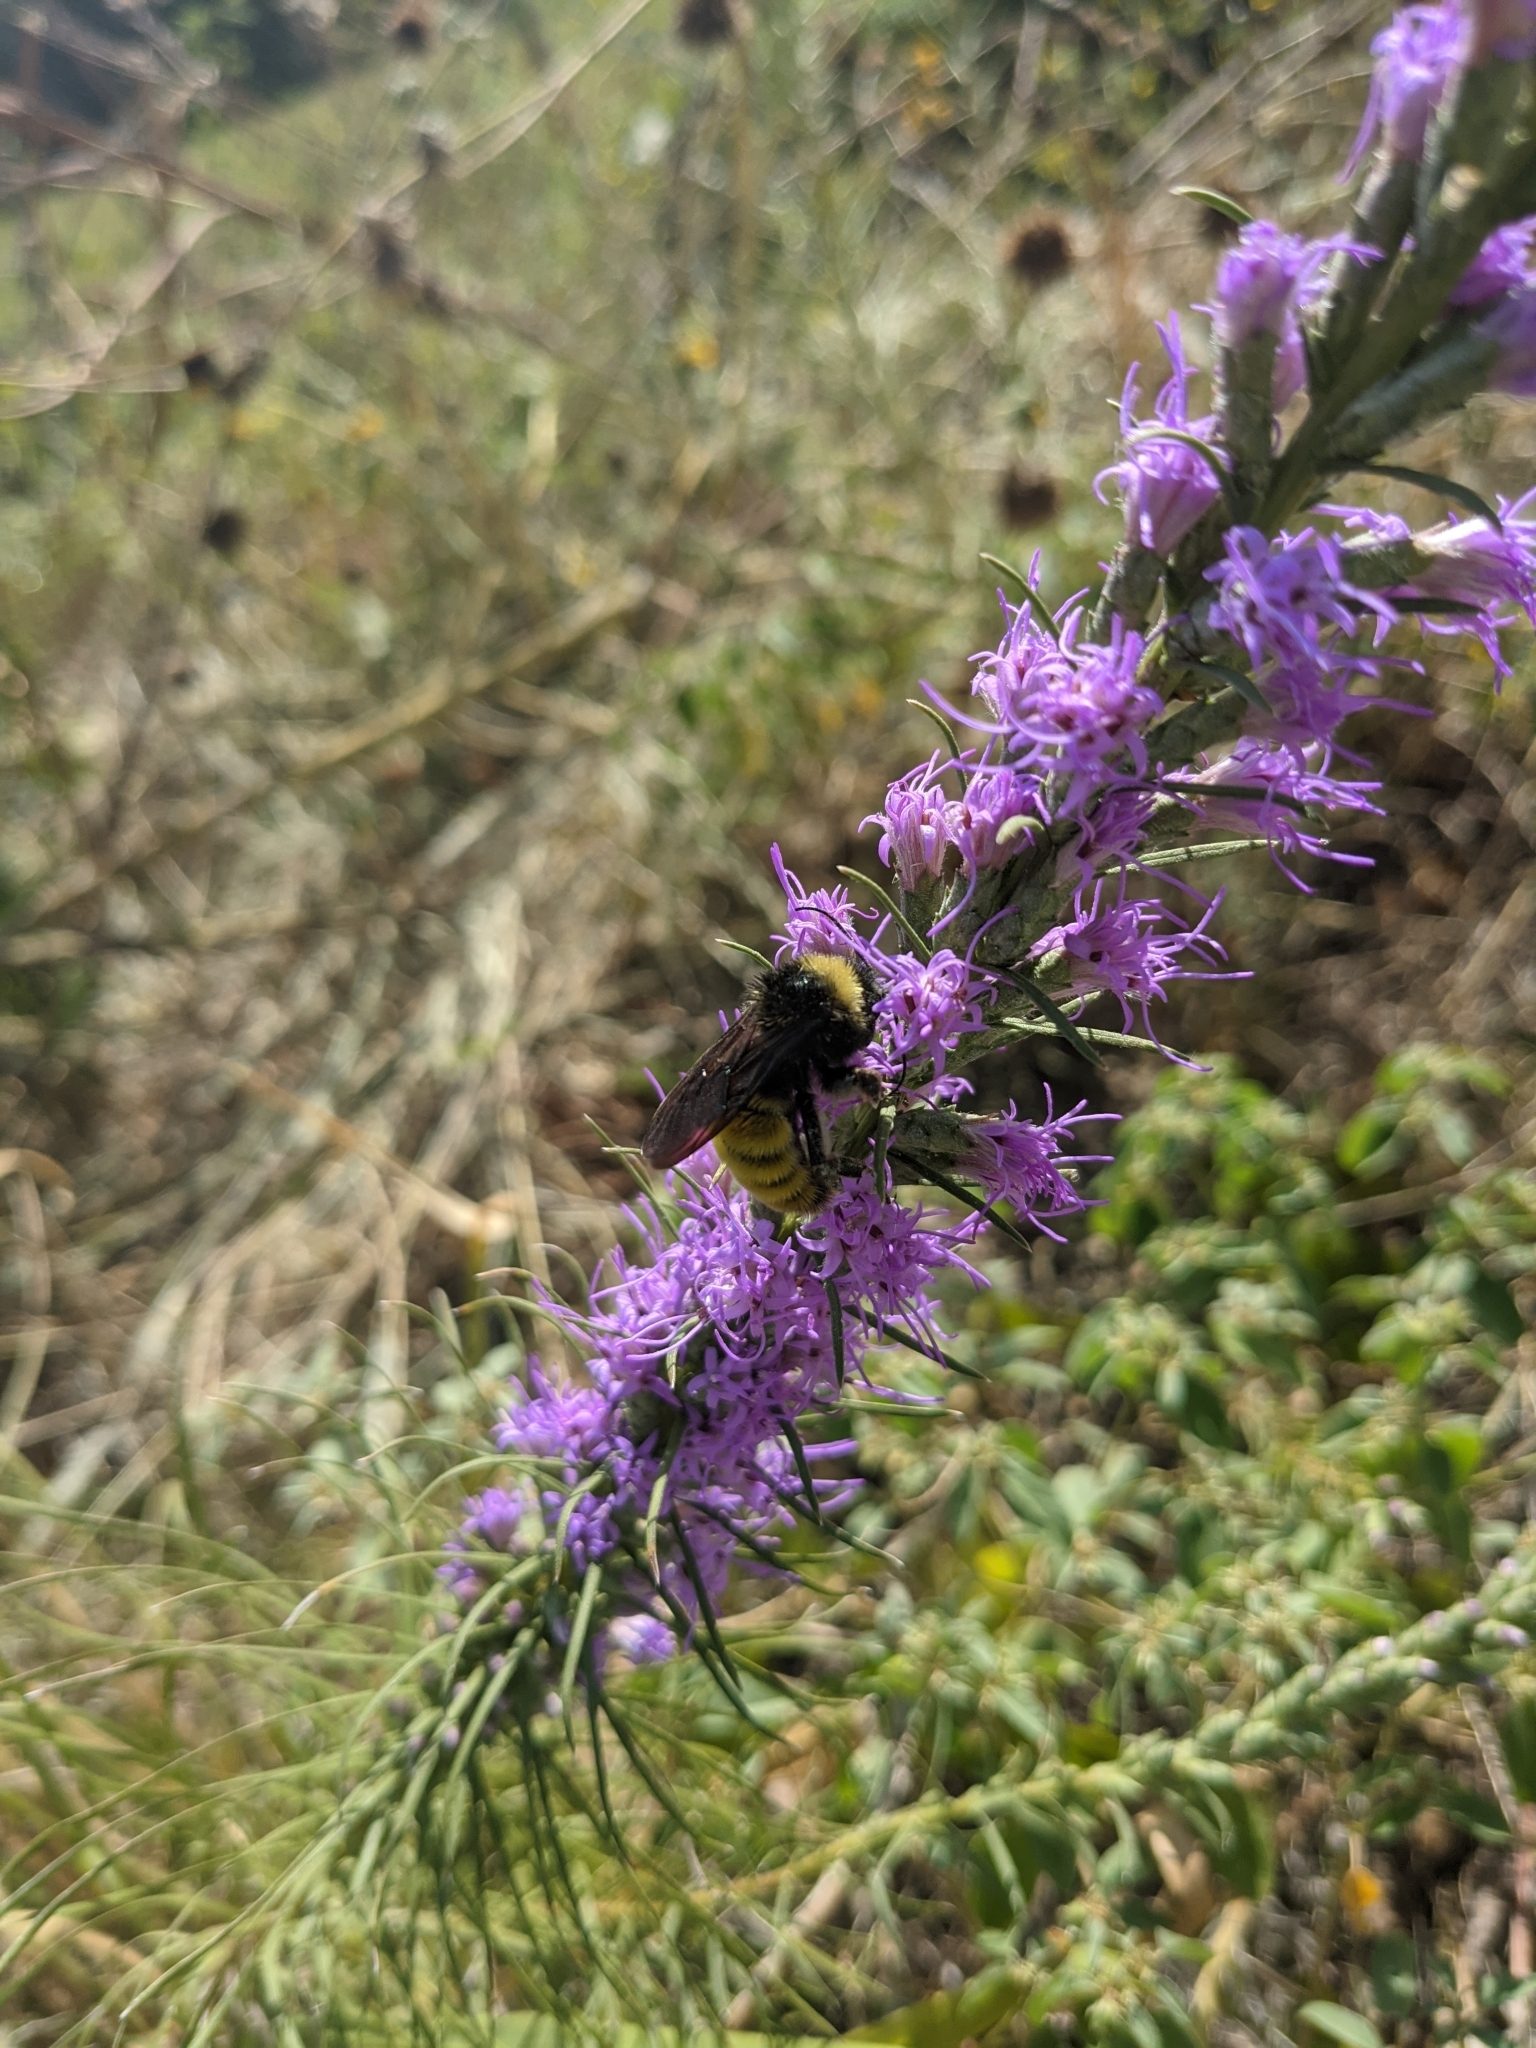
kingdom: Animalia
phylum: Arthropoda
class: Insecta
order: Hymenoptera
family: Apidae
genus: Bombus
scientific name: Bombus pensylvanicus
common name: Bumble bee
